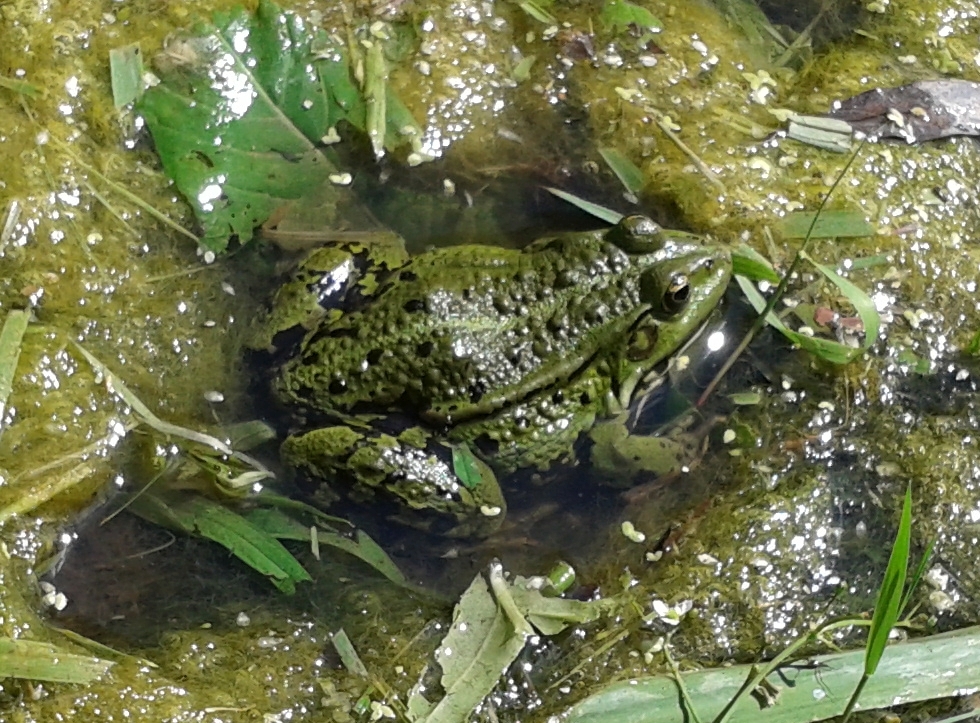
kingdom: Animalia
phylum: Chordata
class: Amphibia
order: Anura
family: Ranidae
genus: Pelophylax
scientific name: Pelophylax
